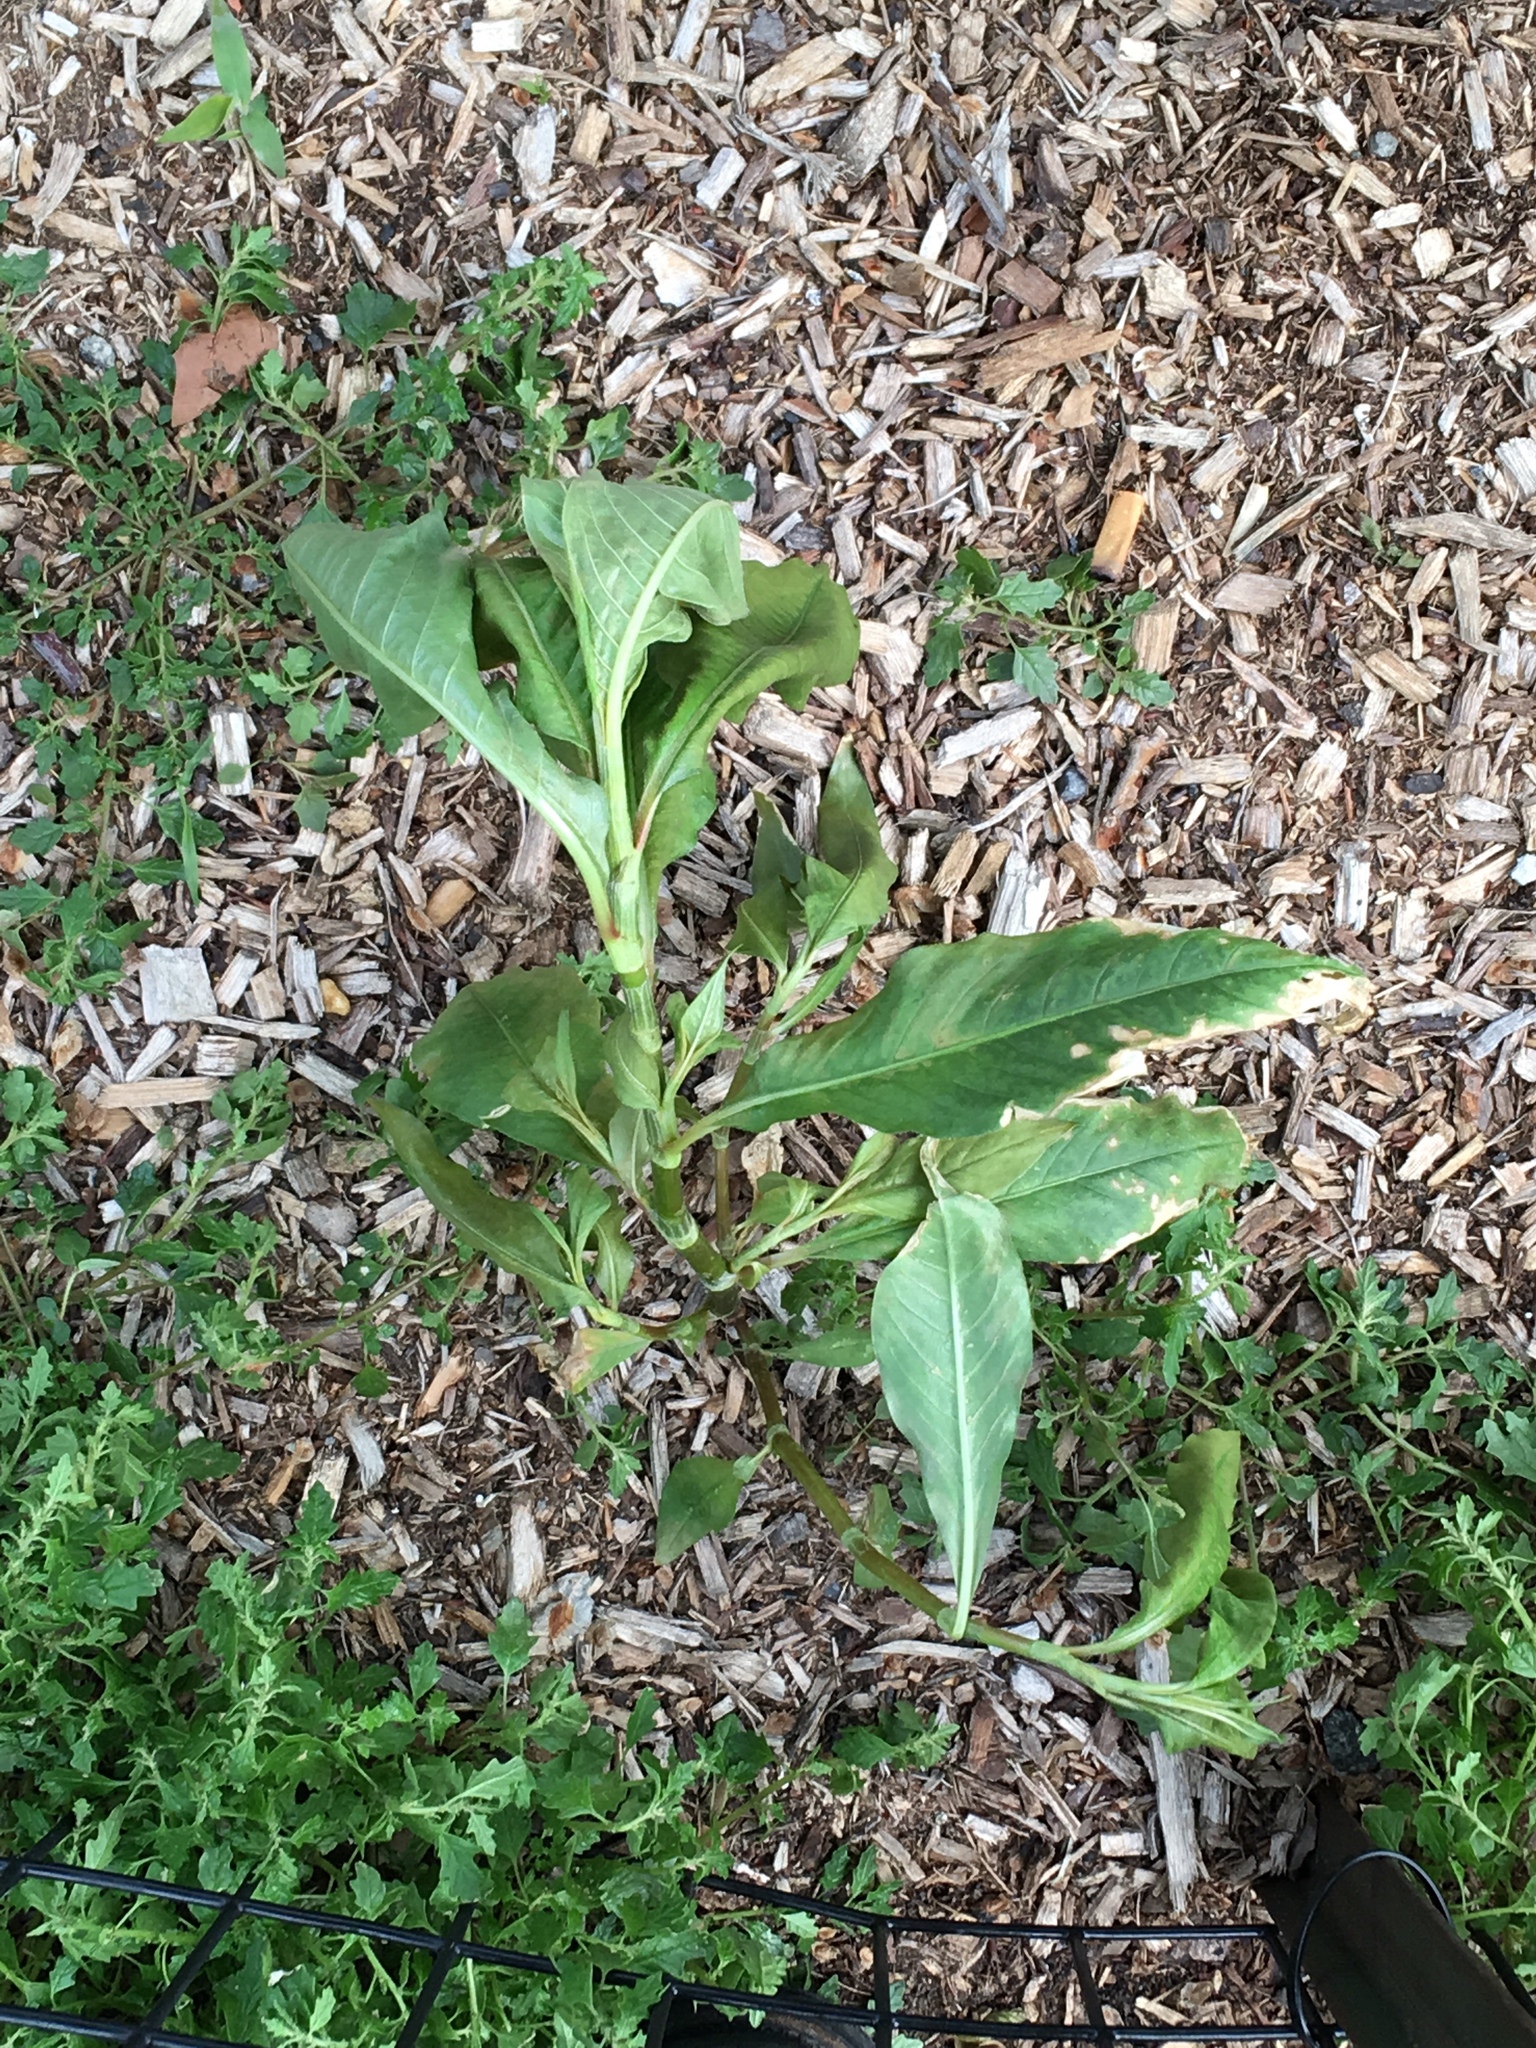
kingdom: Plantae
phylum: Tracheophyta
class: Magnoliopsida
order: Caryophyllales
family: Polygonaceae
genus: Persicaria
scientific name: Persicaria extremiorientalis
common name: Far-eastern smartweed
